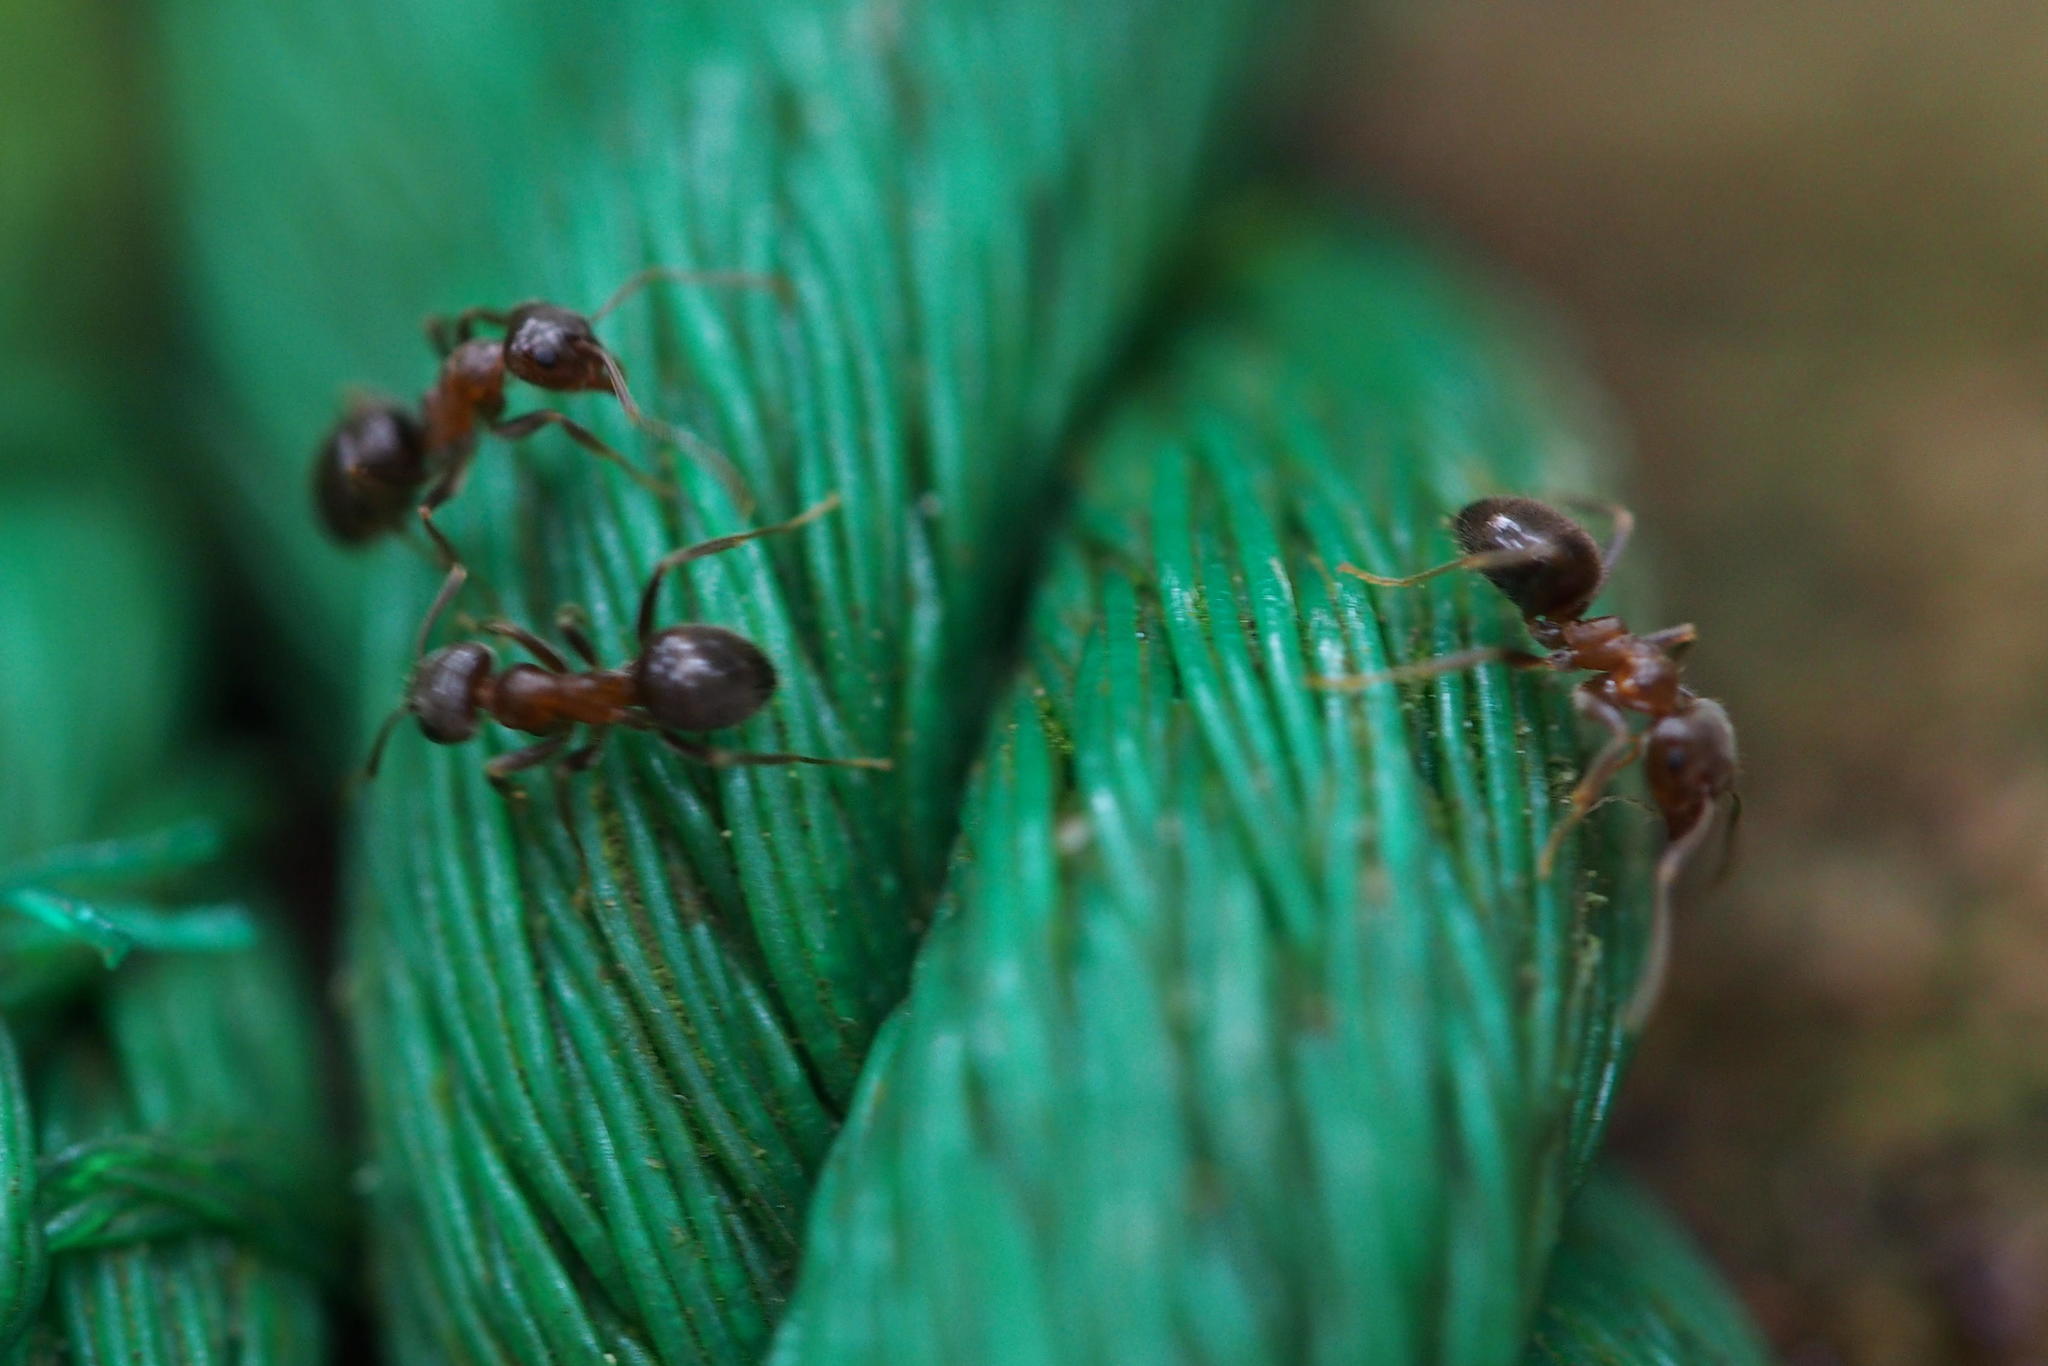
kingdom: Animalia
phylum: Arthropoda
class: Insecta
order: Hymenoptera
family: Formicidae
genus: Lasius
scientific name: Lasius hayashi
